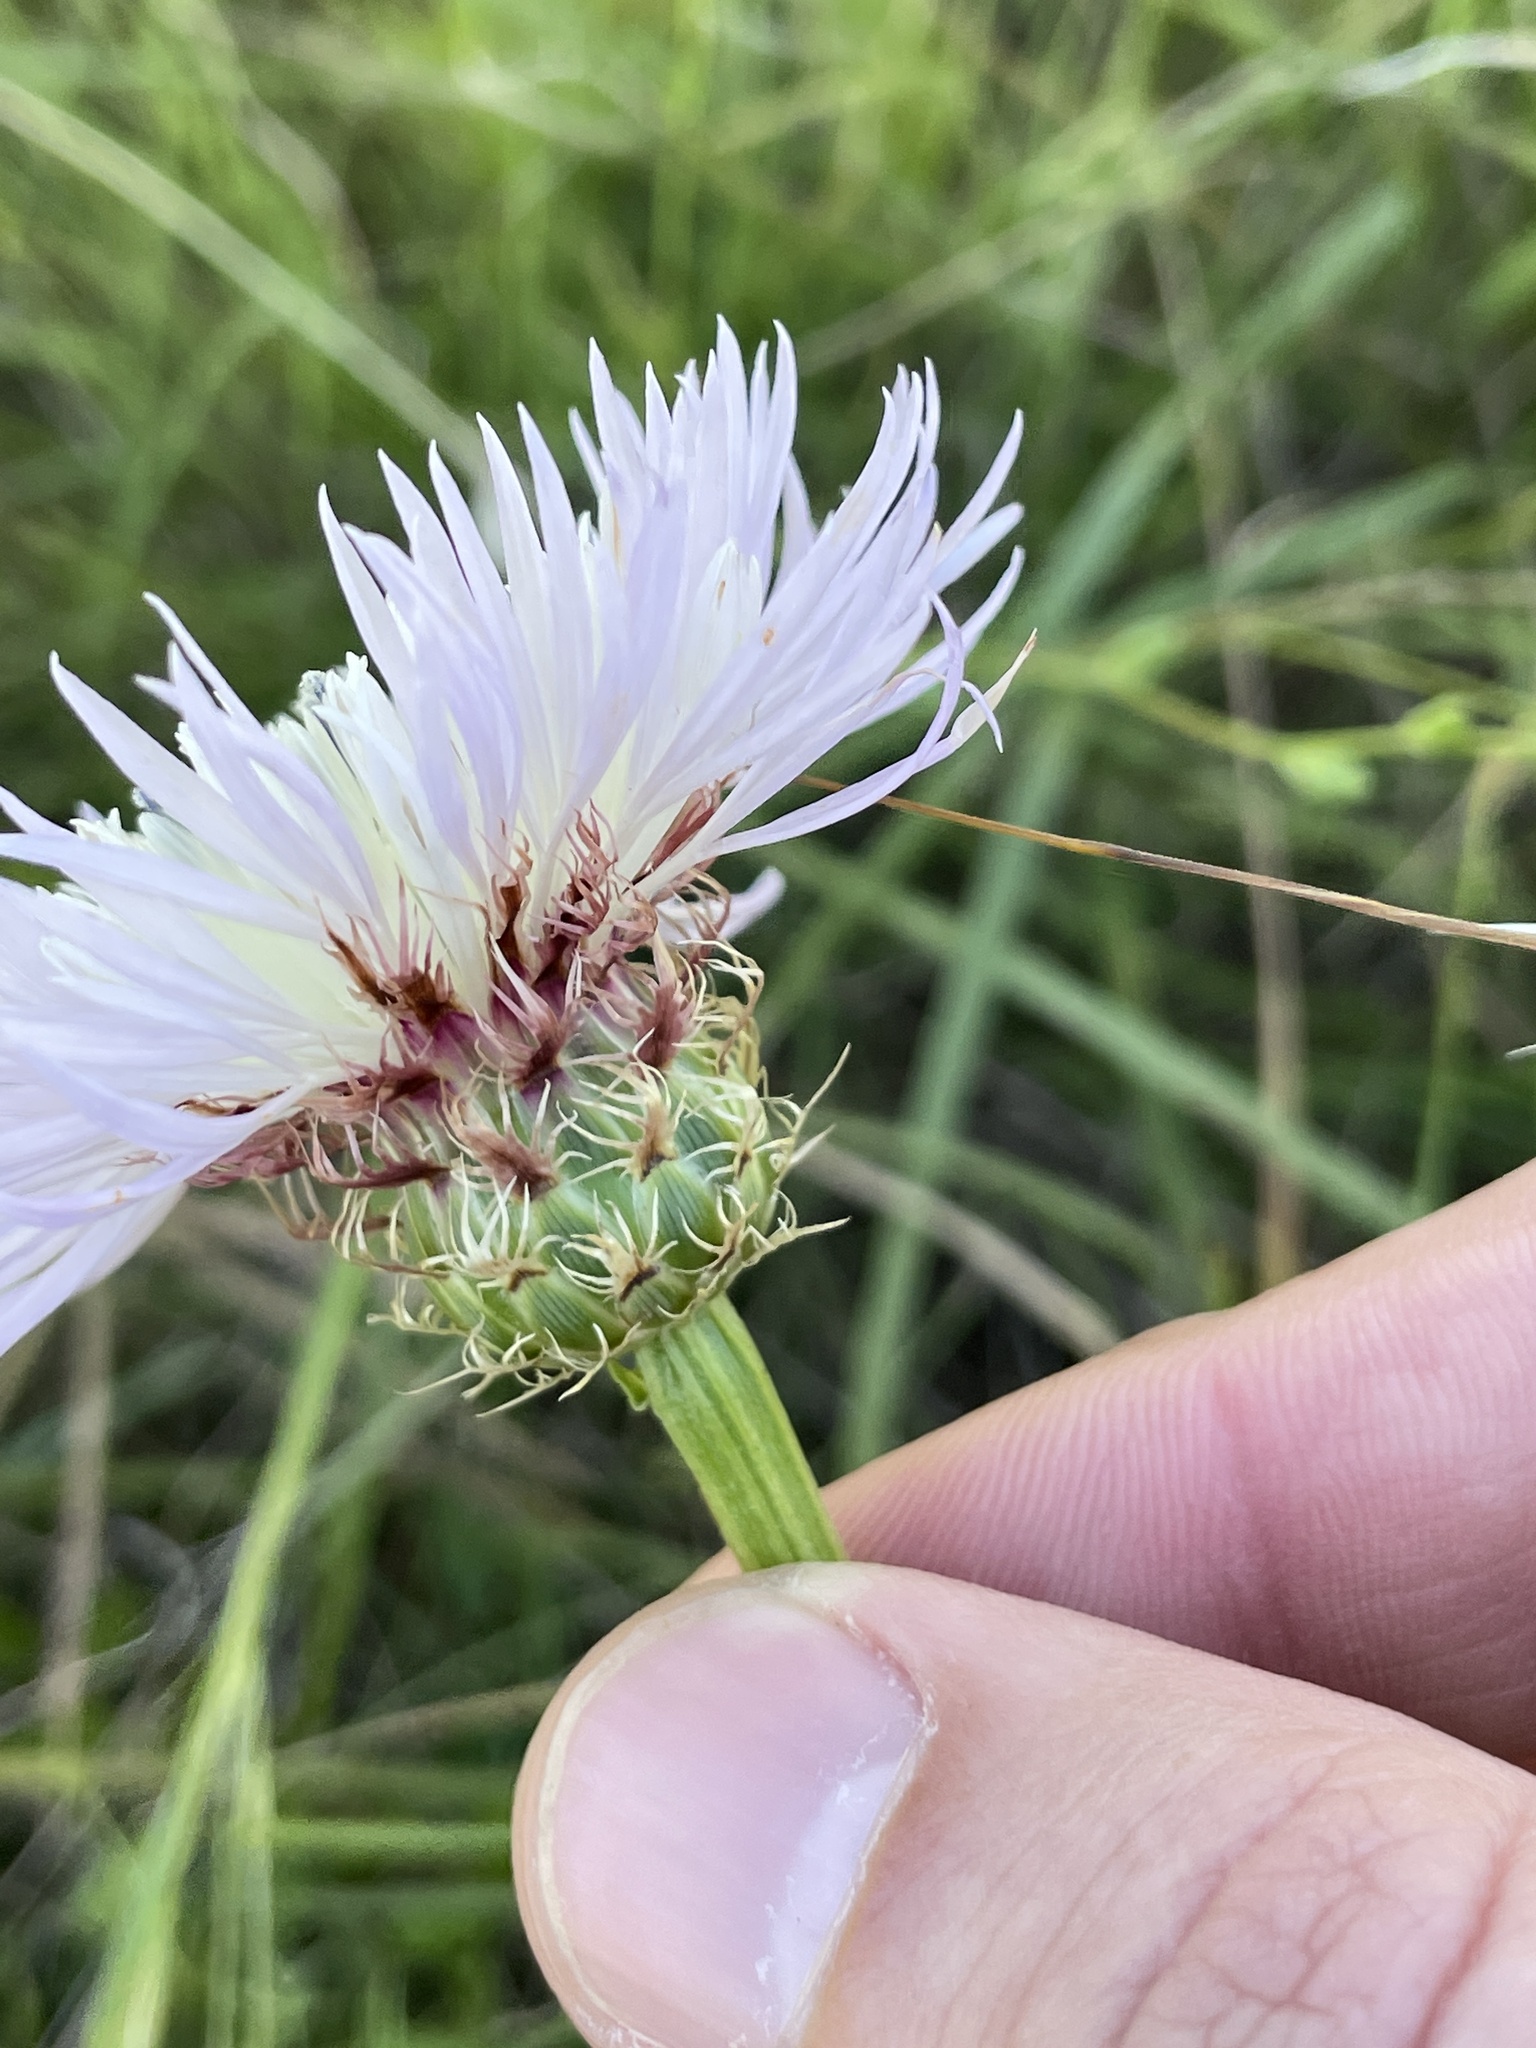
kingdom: Plantae
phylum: Tracheophyta
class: Magnoliopsida
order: Asterales
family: Asteraceae
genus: Plectocephalus
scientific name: Plectocephalus americanus
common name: American basket-flower
